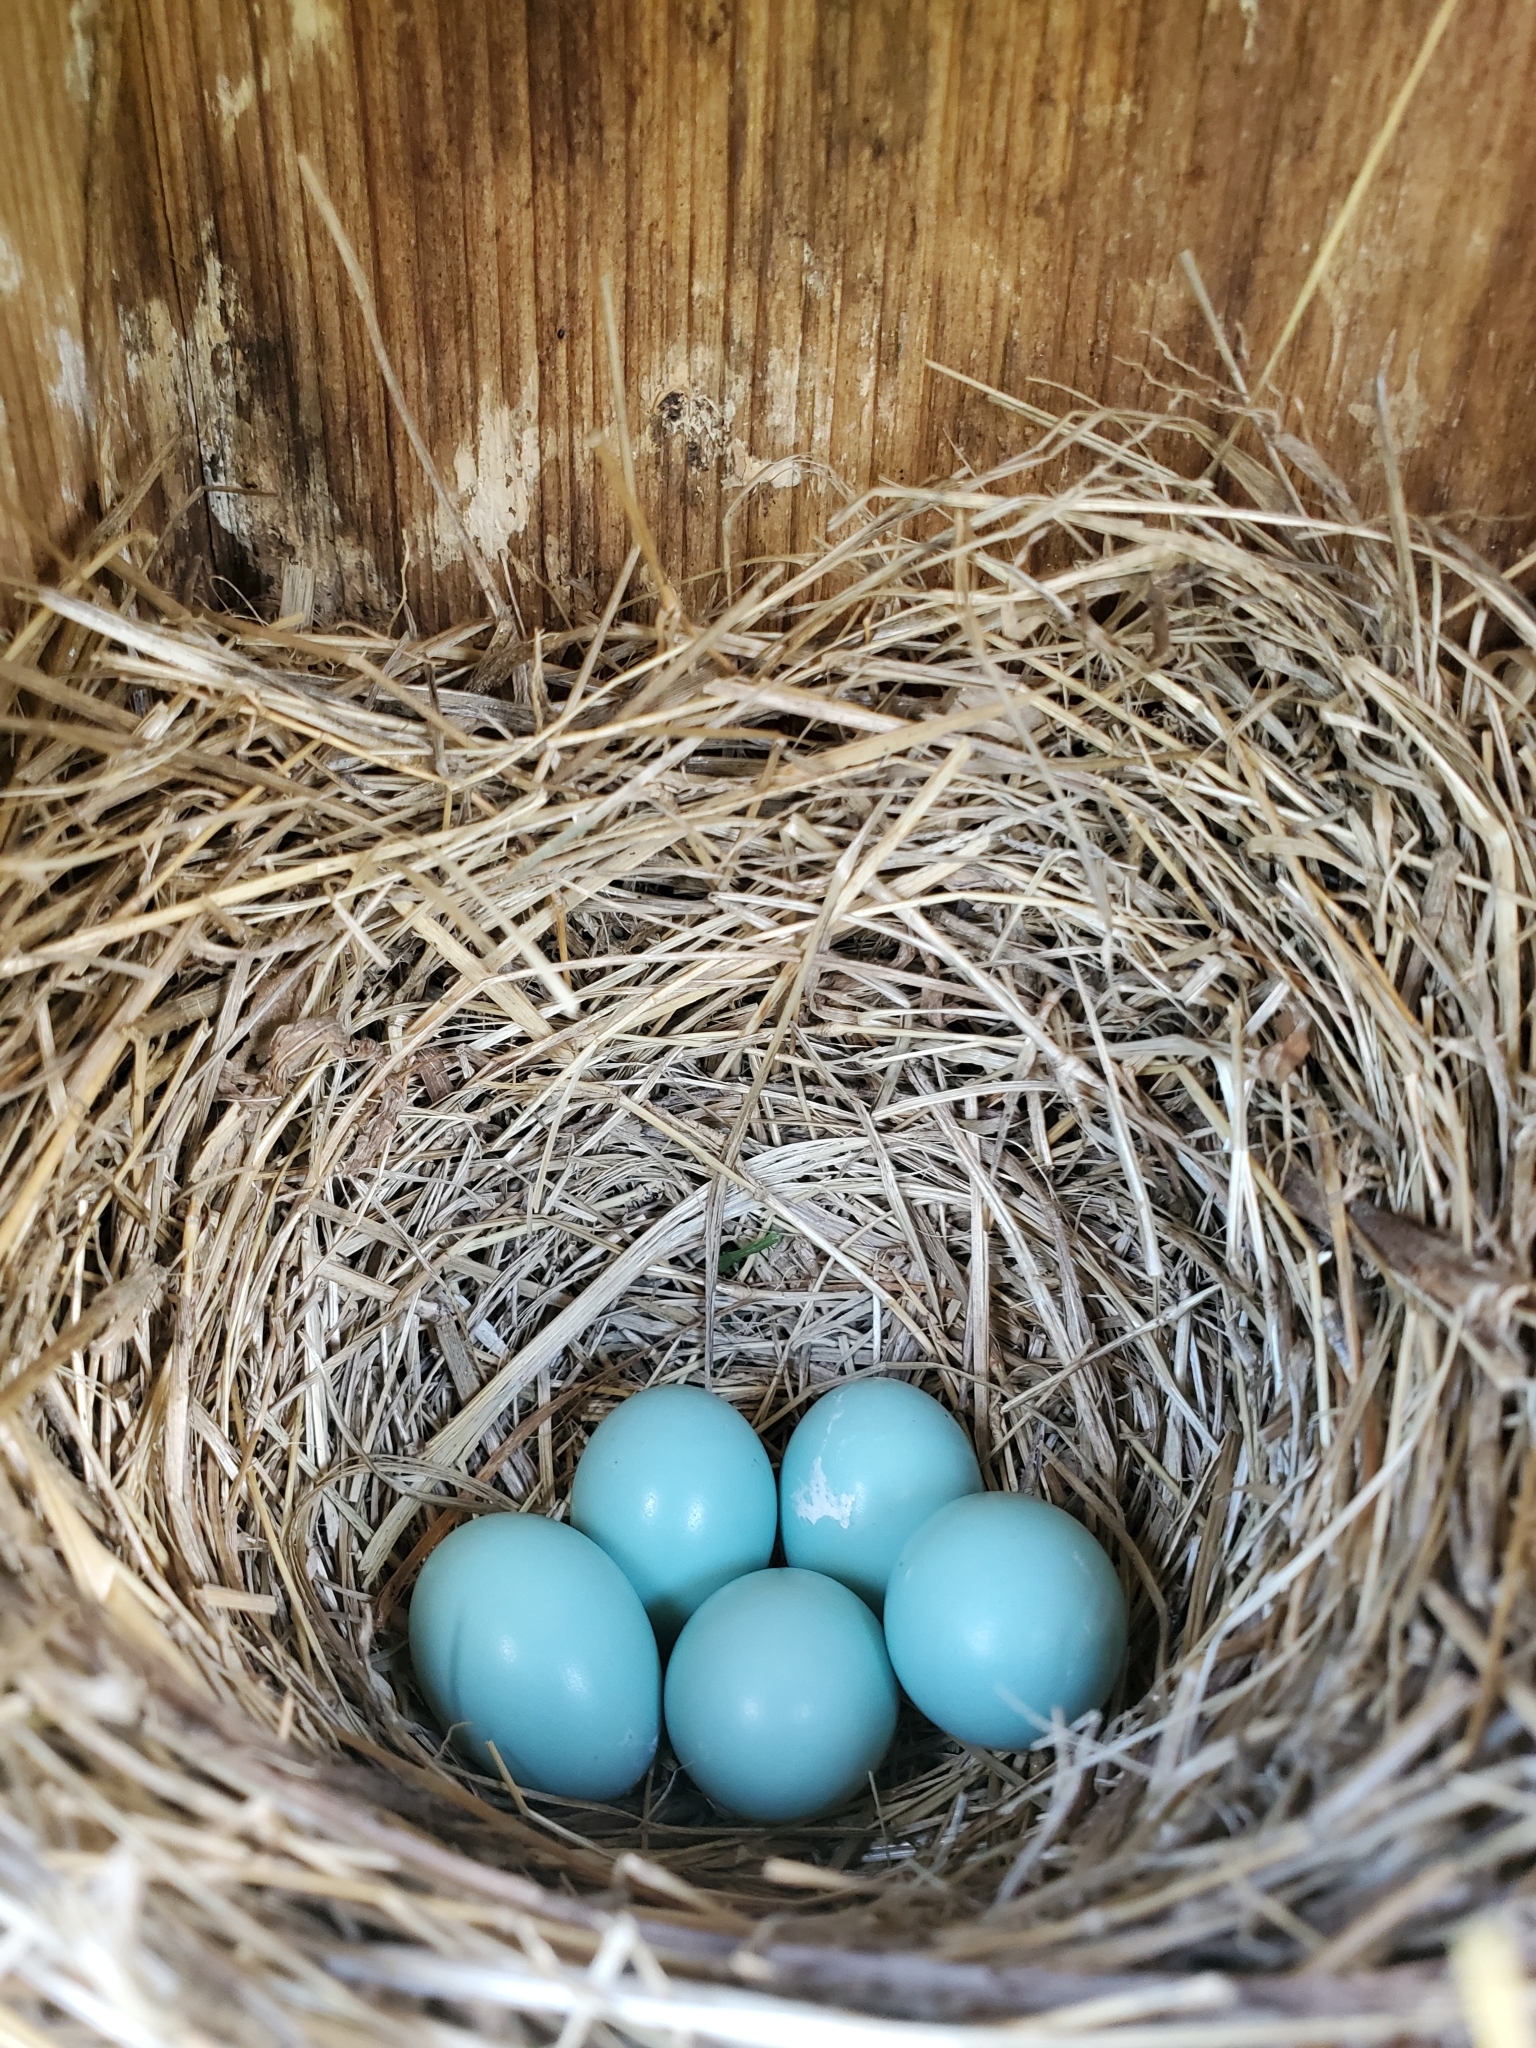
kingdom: Animalia
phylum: Chordata
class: Aves
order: Passeriformes
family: Turdidae
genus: Sialia
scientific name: Sialia sialis
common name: Eastern bluebird
